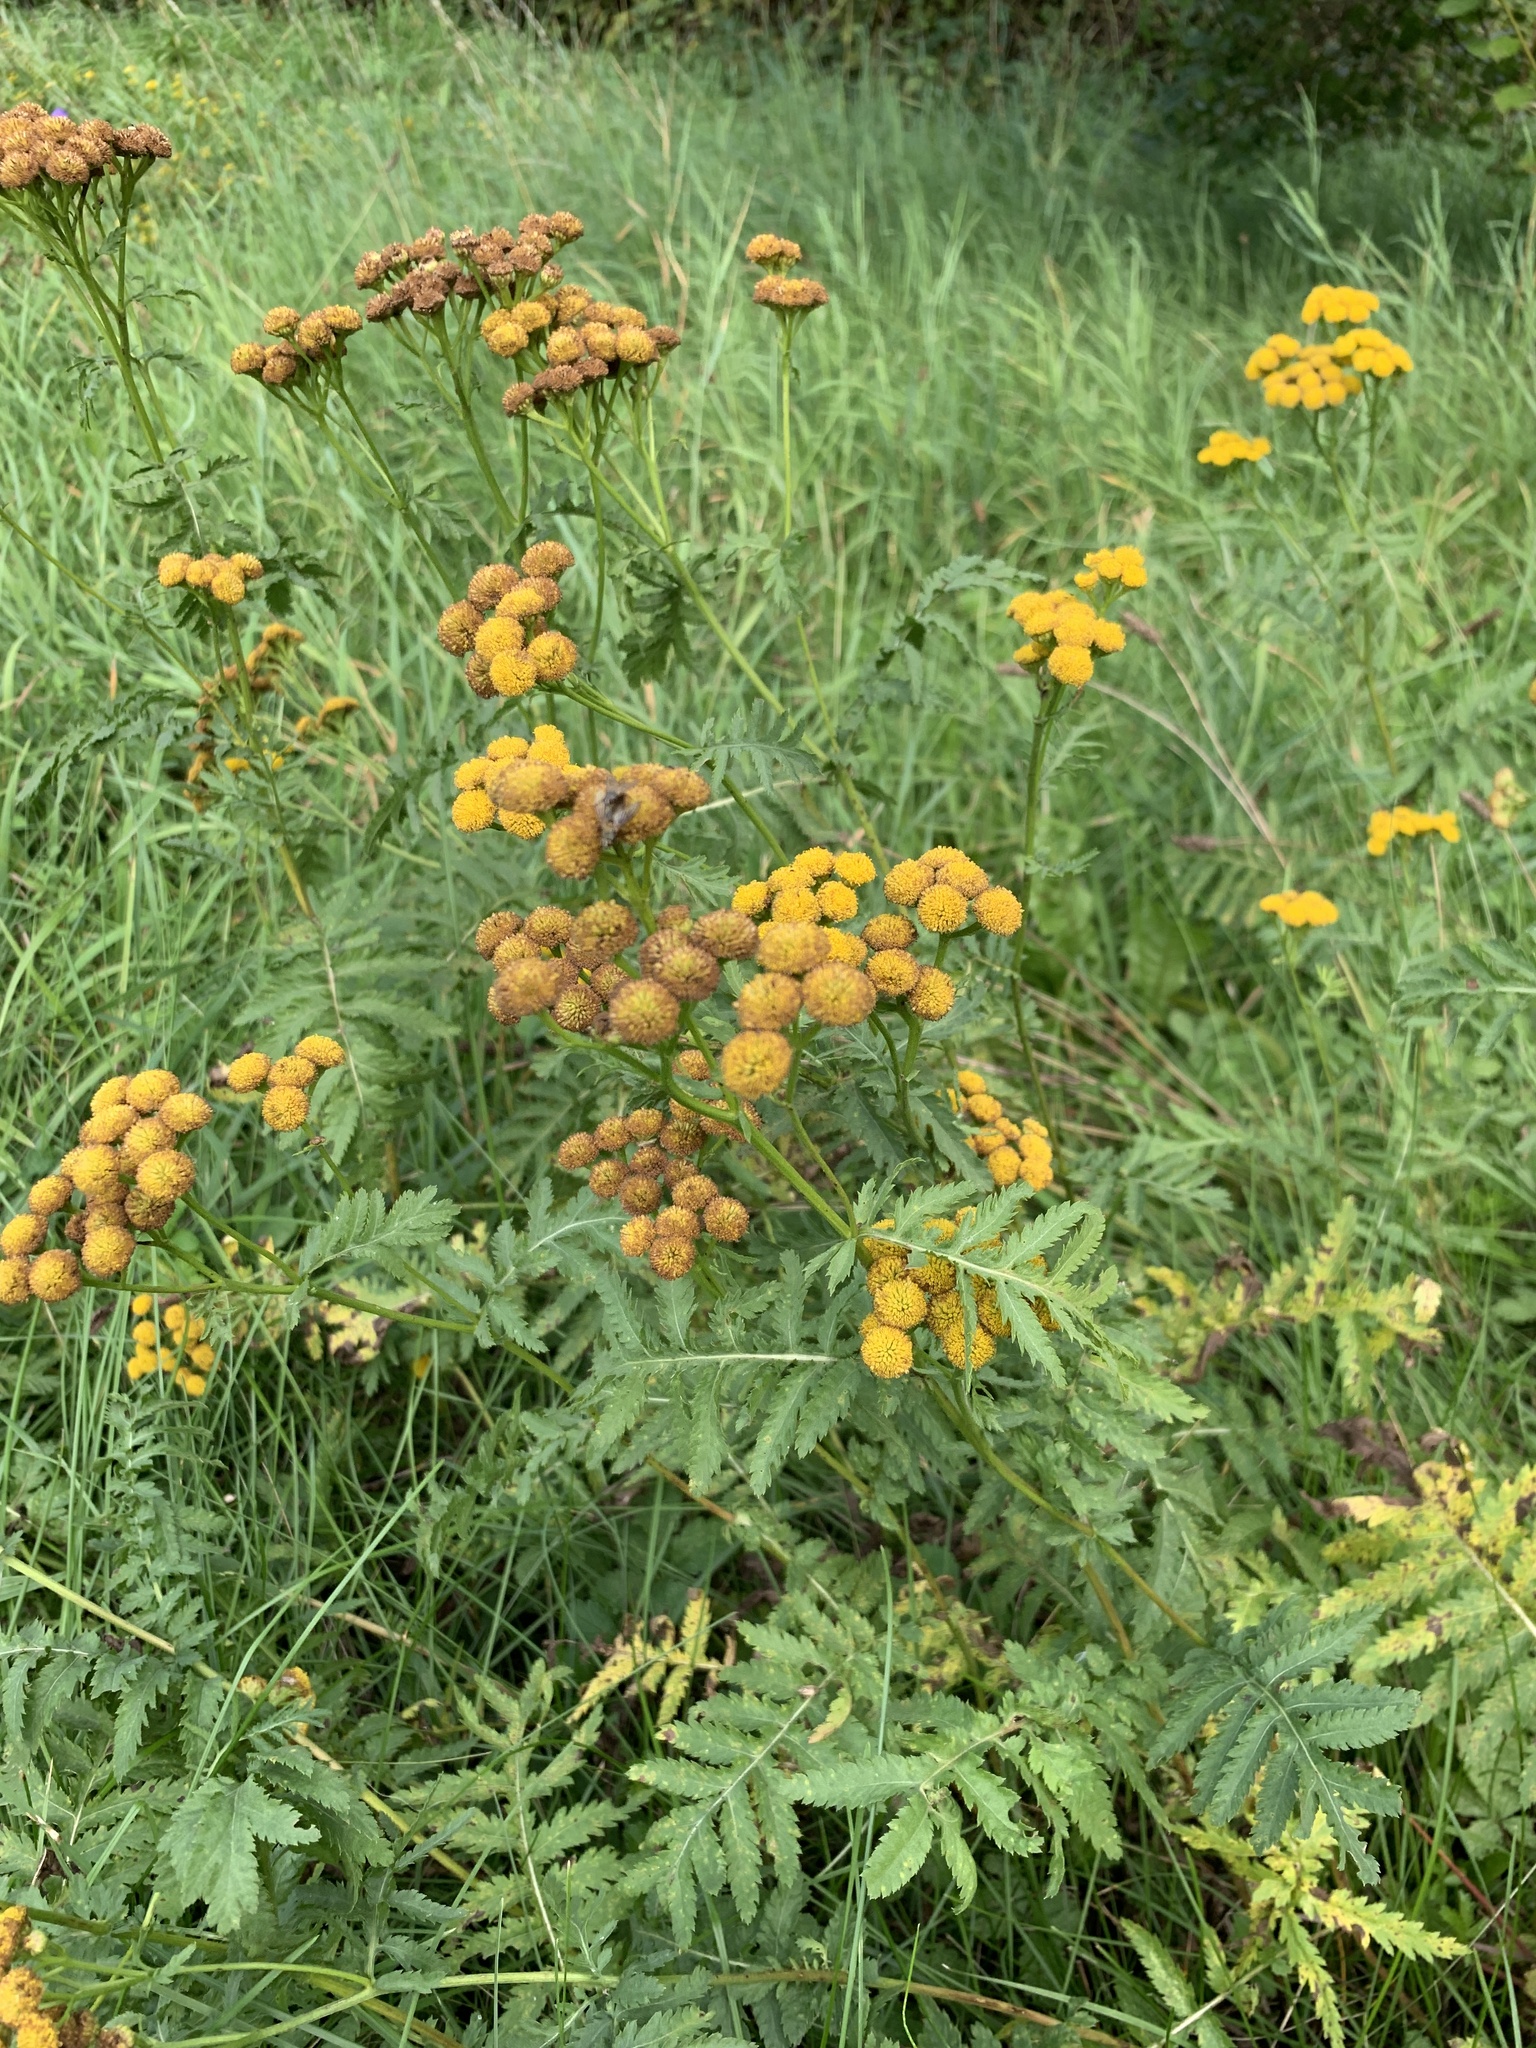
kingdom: Plantae
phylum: Tracheophyta
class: Magnoliopsida
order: Asterales
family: Asteraceae
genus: Tanacetum
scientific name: Tanacetum vulgare
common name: Common tansy
